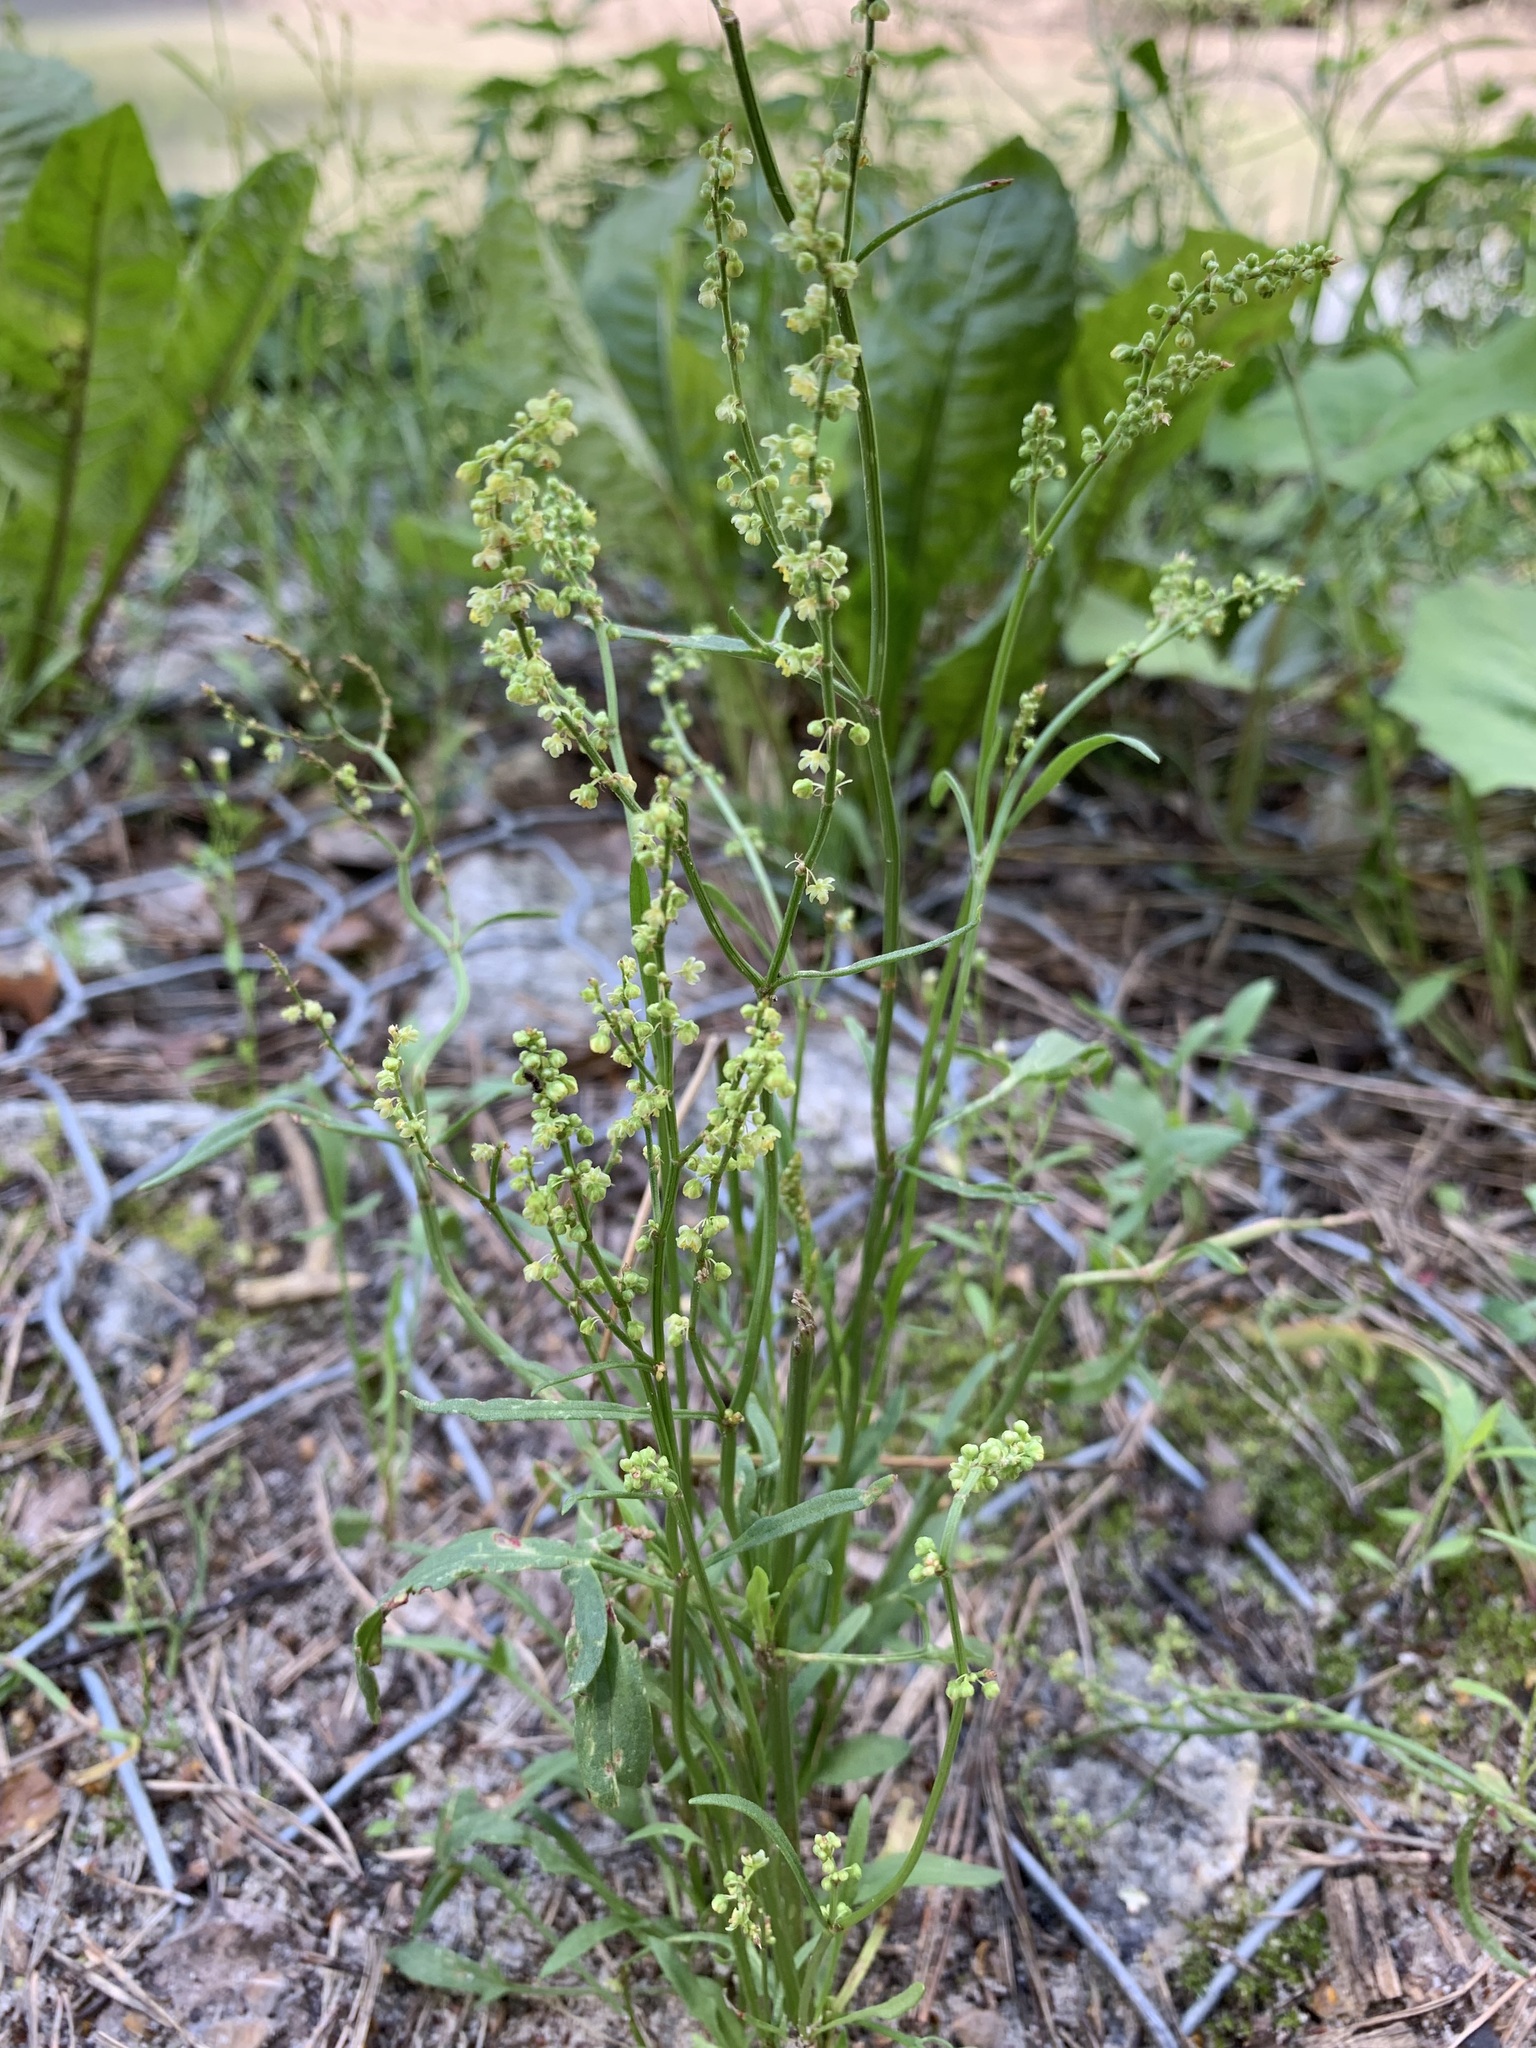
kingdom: Plantae
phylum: Tracheophyta
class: Magnoliopsida
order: Caryophyllales
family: Polygonaceae
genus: Rumex
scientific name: Rumex acetosella
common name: Common sheep sorrel
